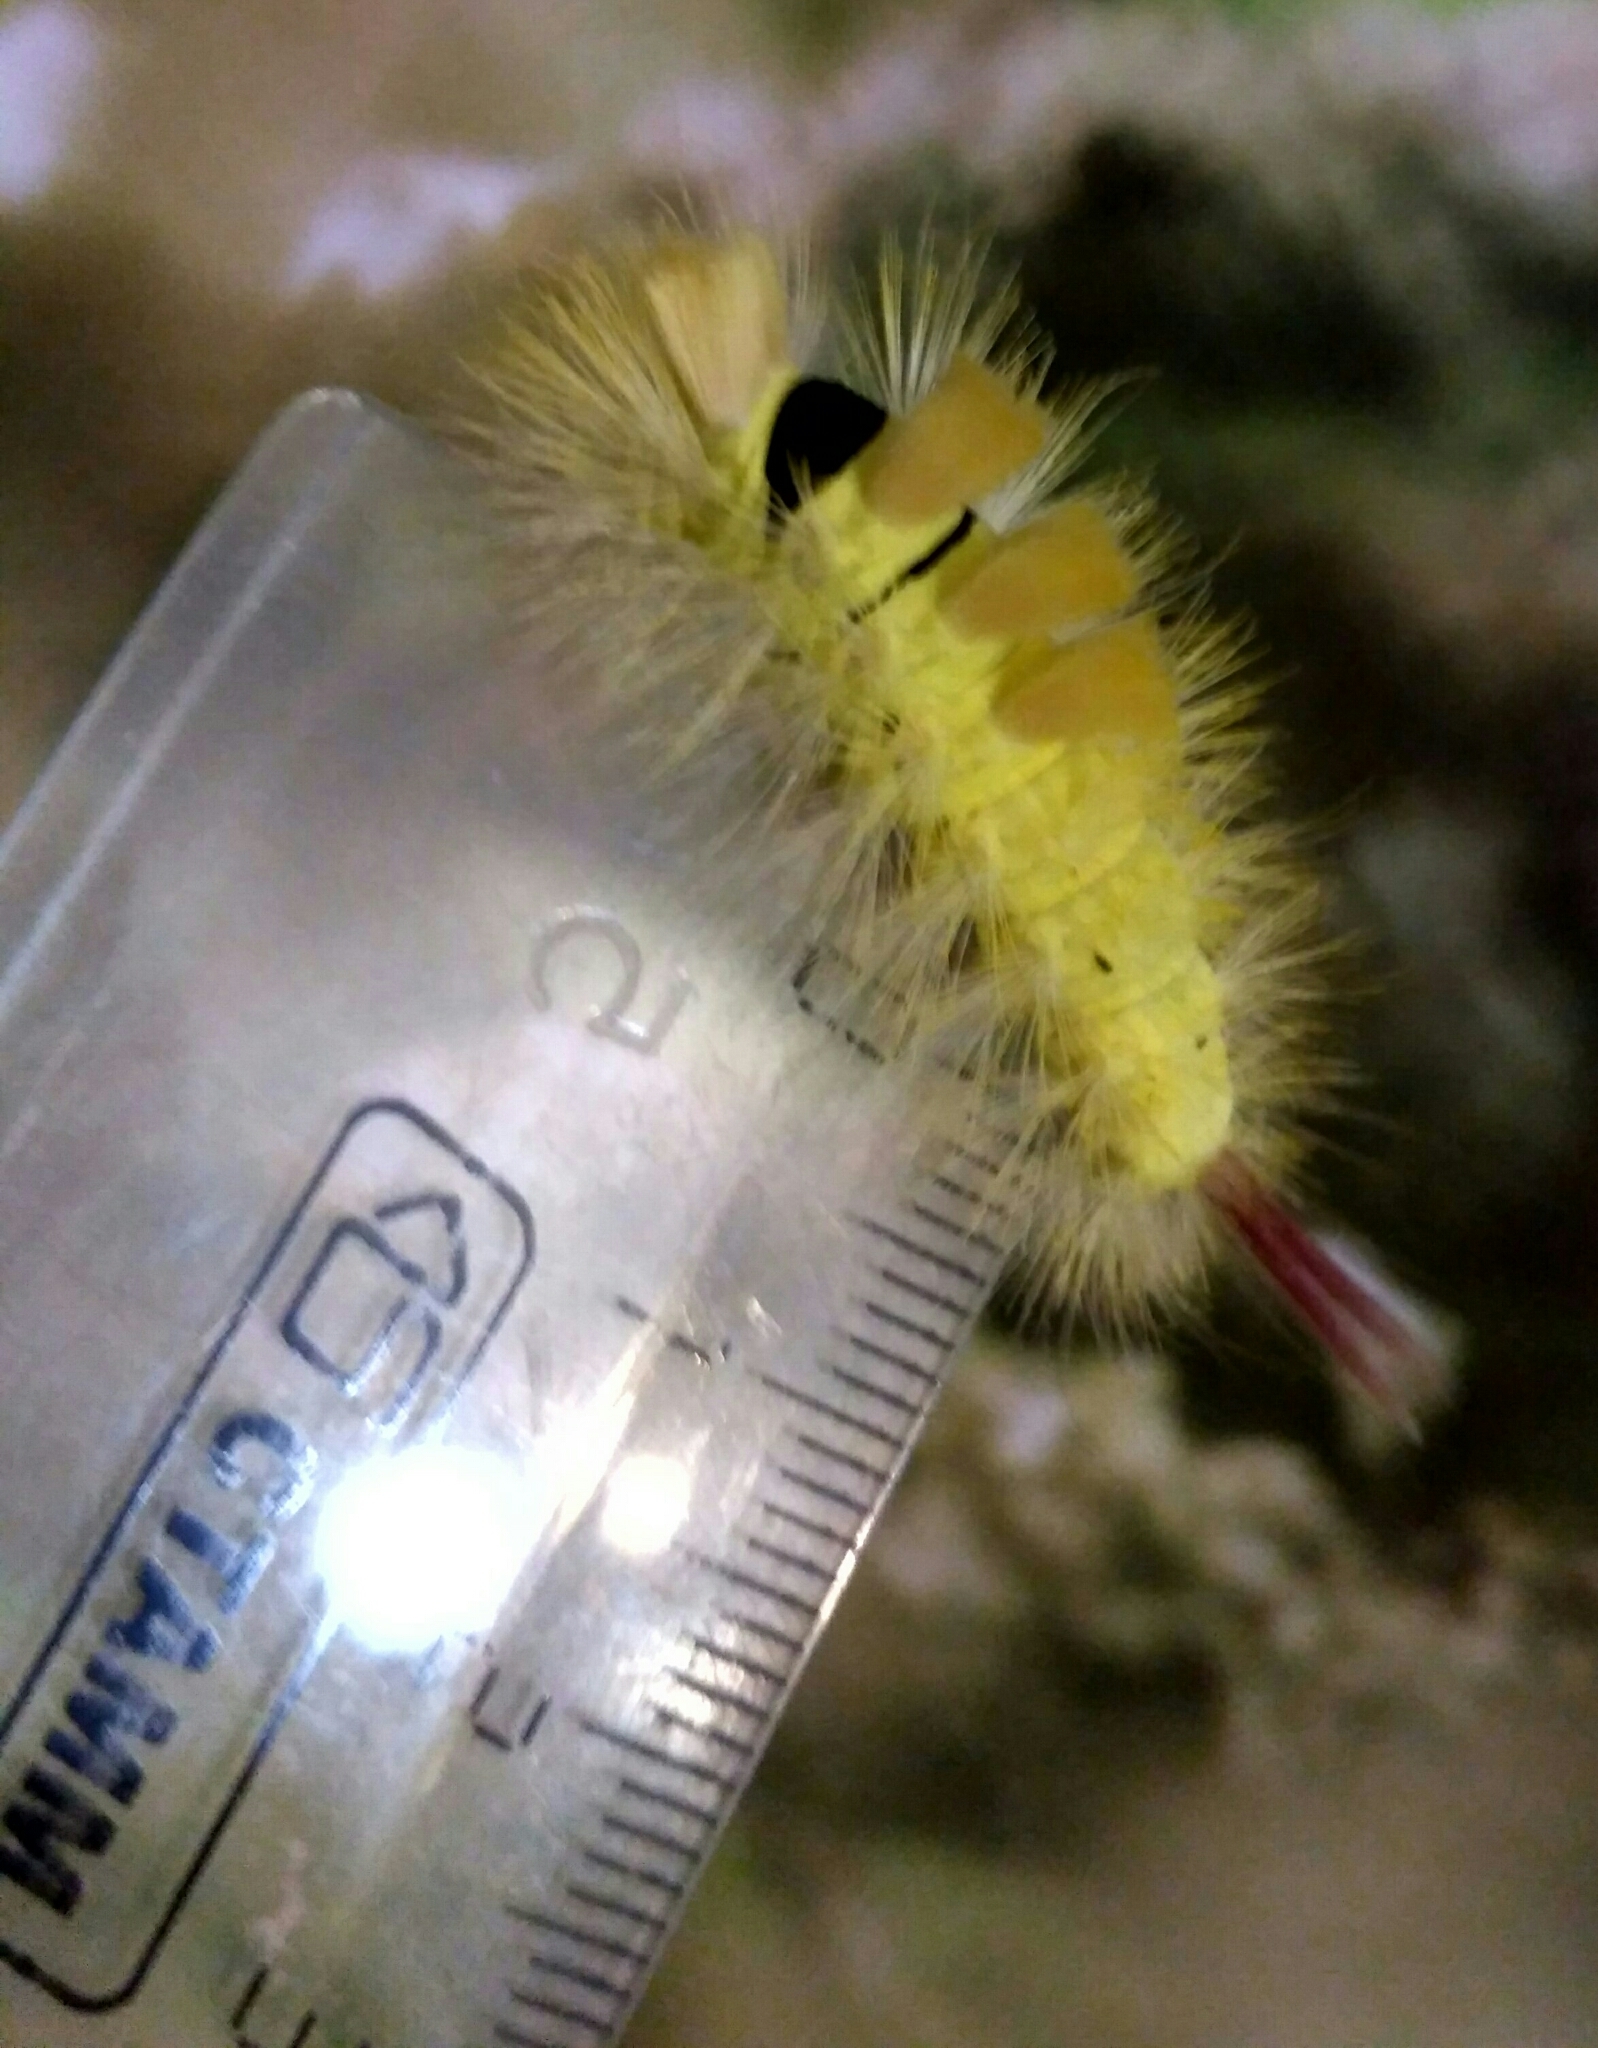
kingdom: Animalia
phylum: Arthropoda
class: Insecta
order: Lepidoptera
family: Erebidae
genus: Calliteara
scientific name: Calliteara pudibunda
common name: Pale tussock
